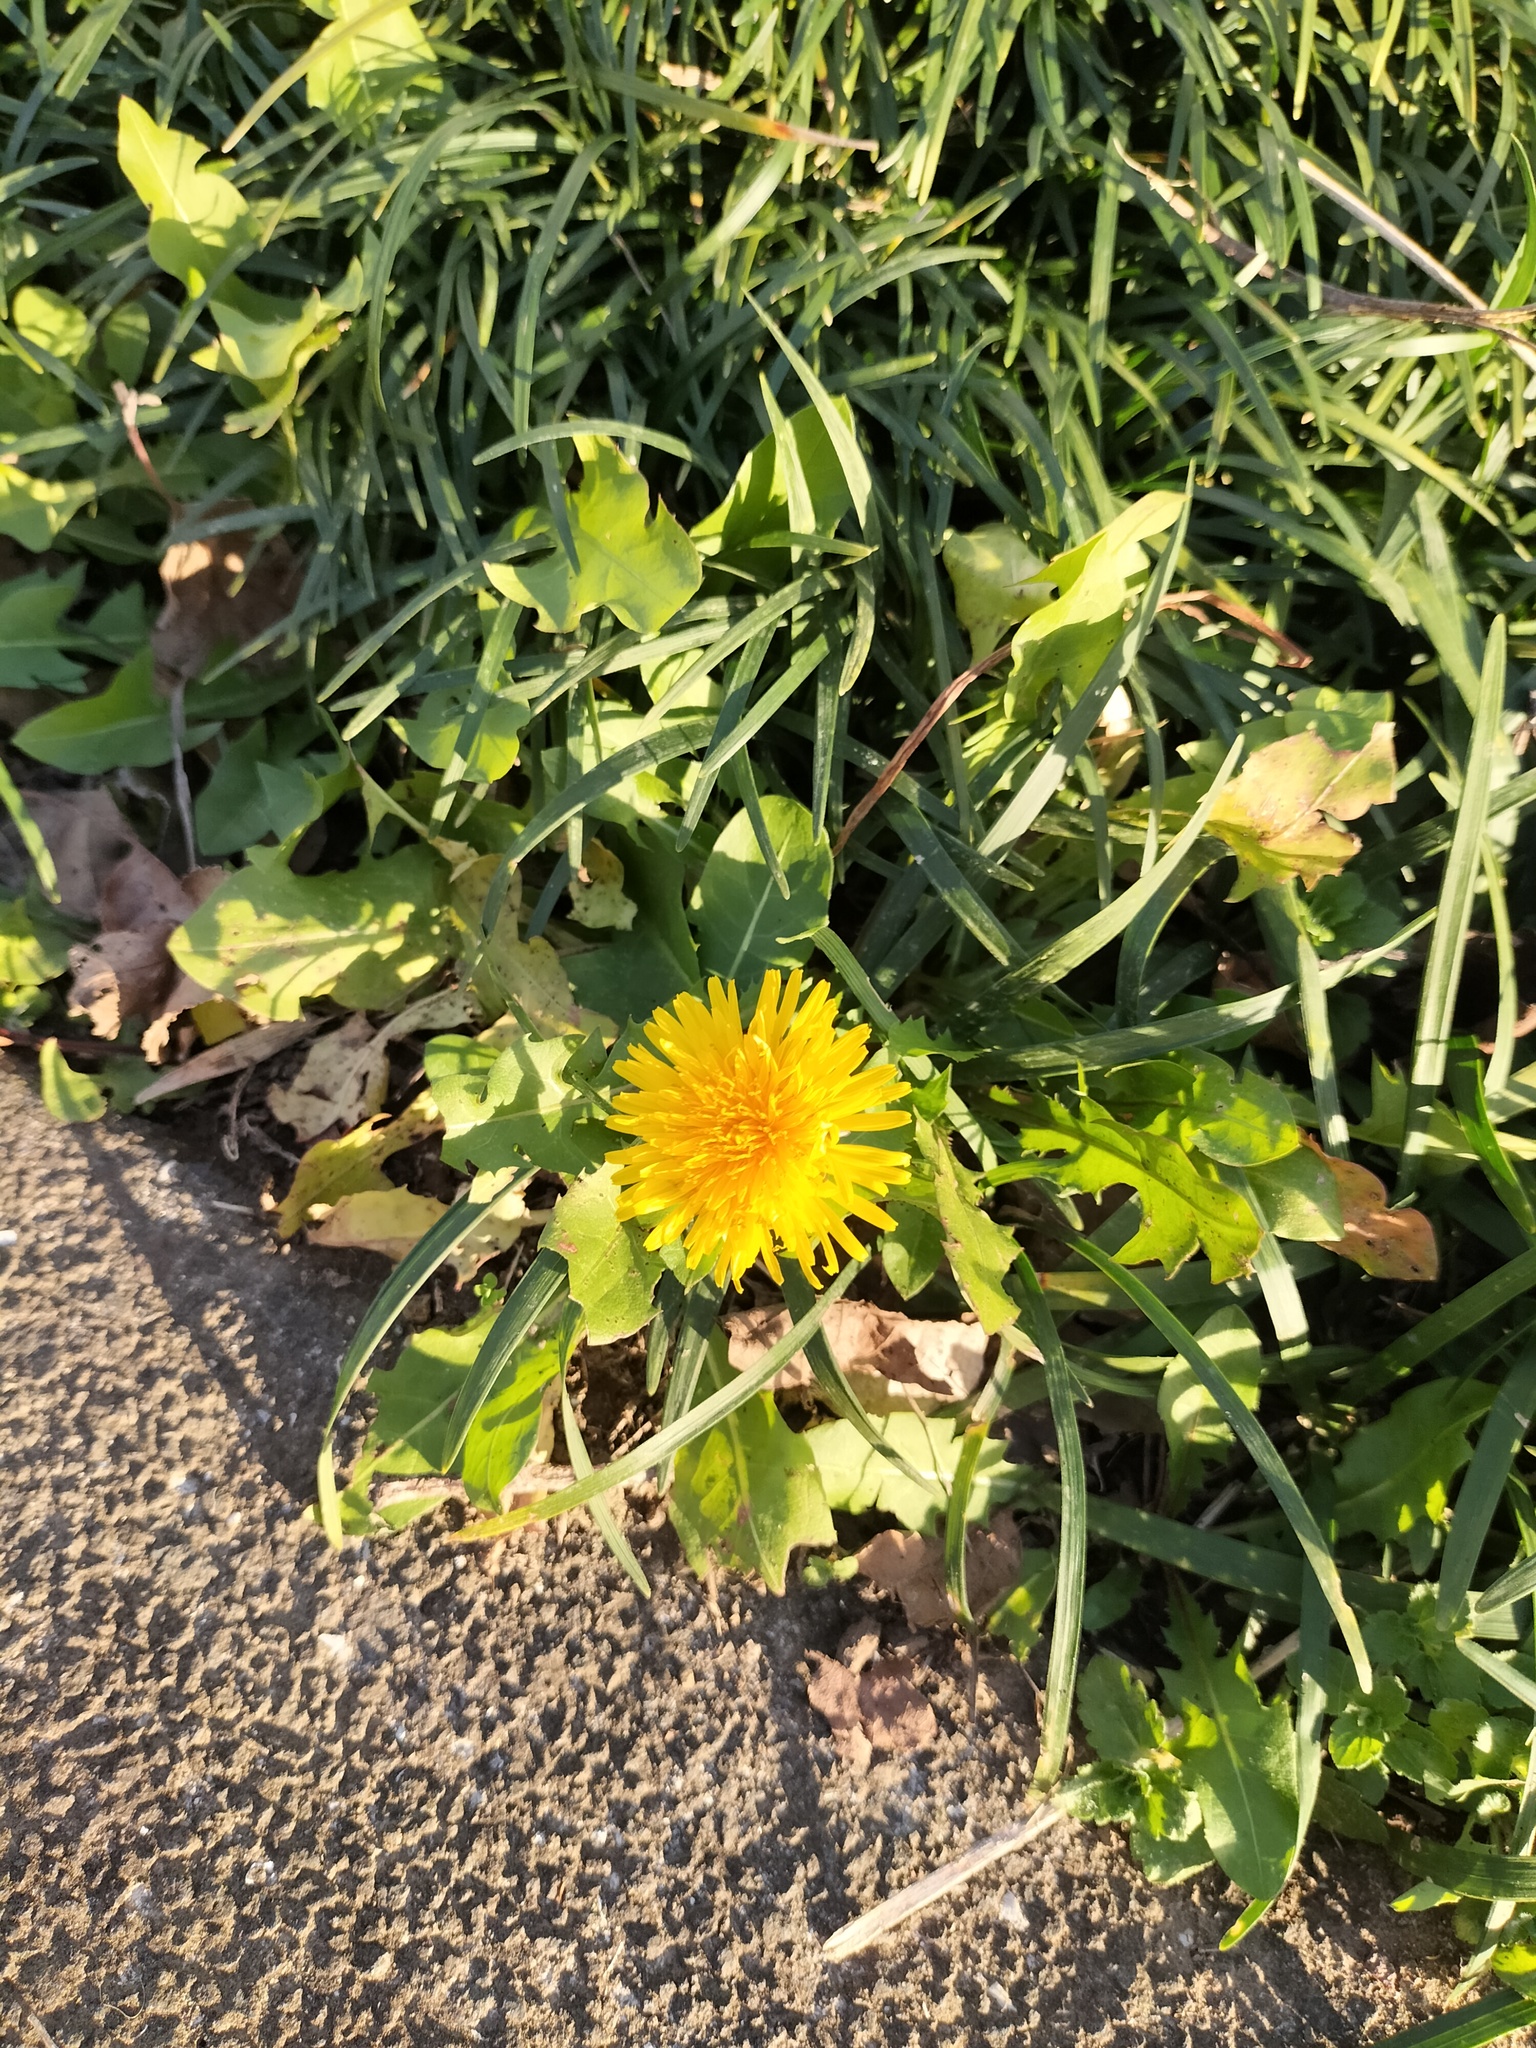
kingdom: Plantae
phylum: Tracheophyta
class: Magnoliopsida
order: Asterales
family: Asteraceae
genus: Taraxacum
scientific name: Taraxacum officinale
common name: Common dandelion
